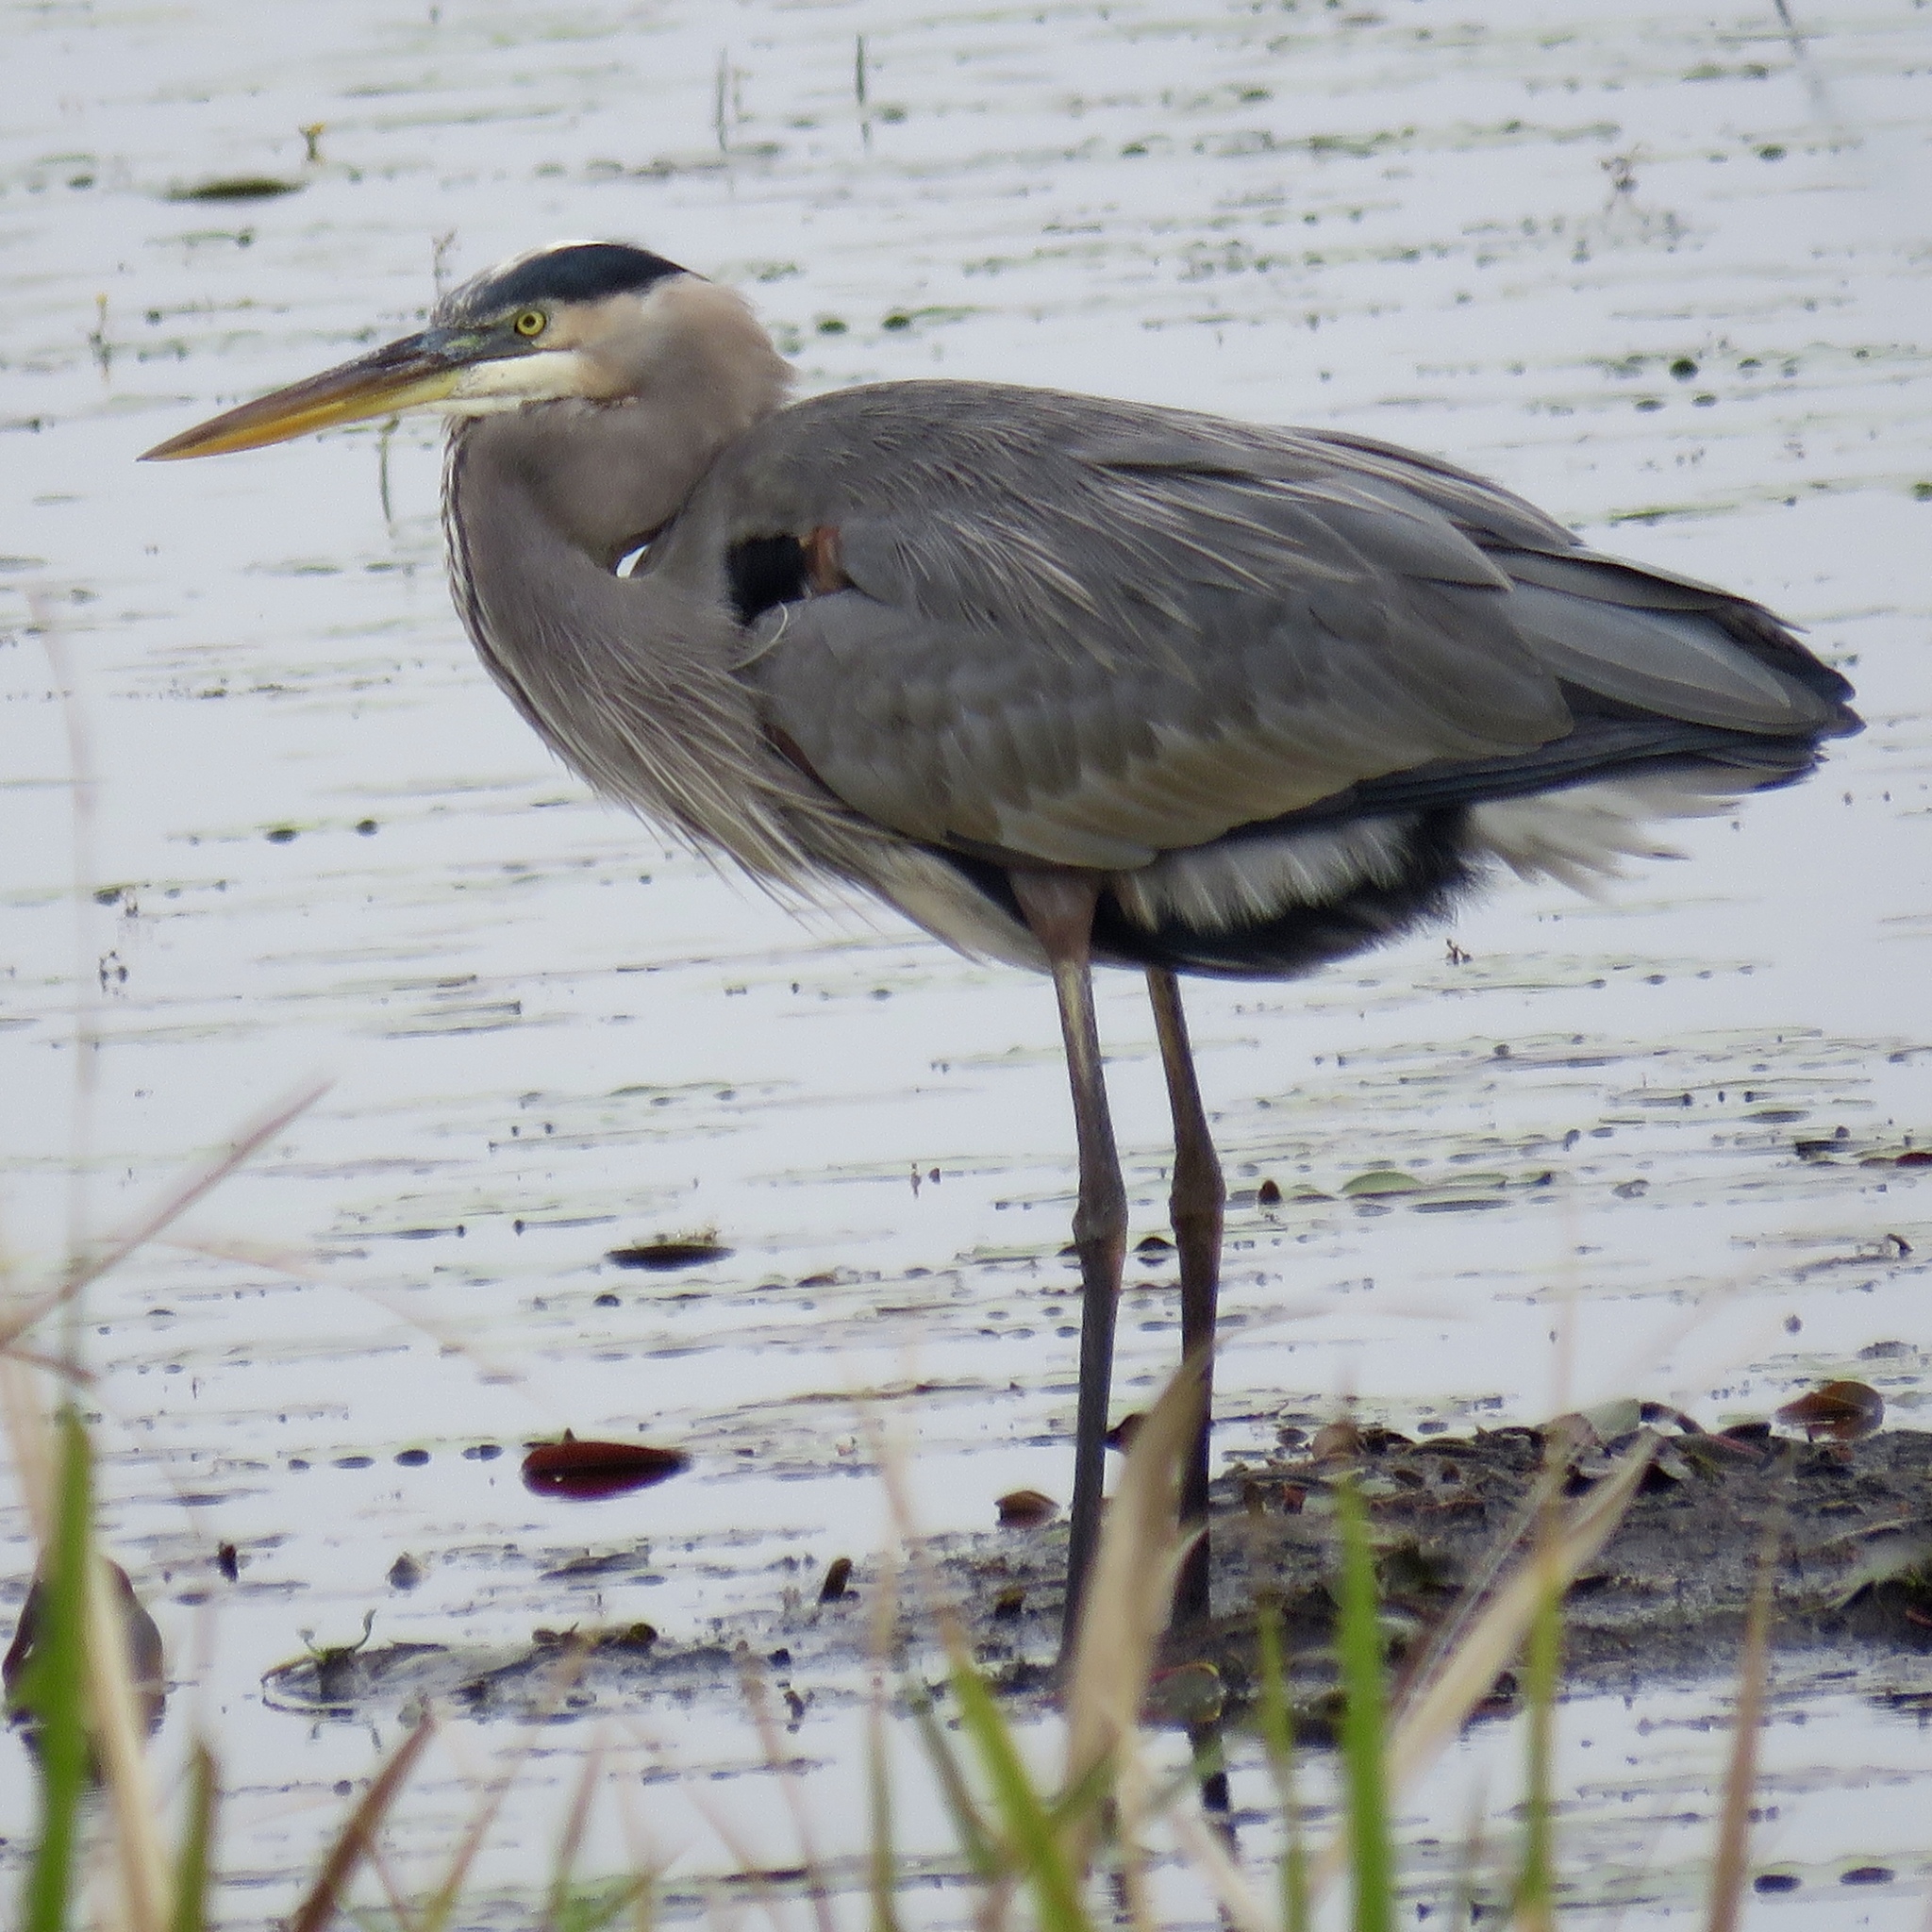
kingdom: Animalia
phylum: Chordata
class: Aves
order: Pelecaniformes
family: Ardeidae
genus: Ardea
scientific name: Ardea herodias
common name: Great blue heron
